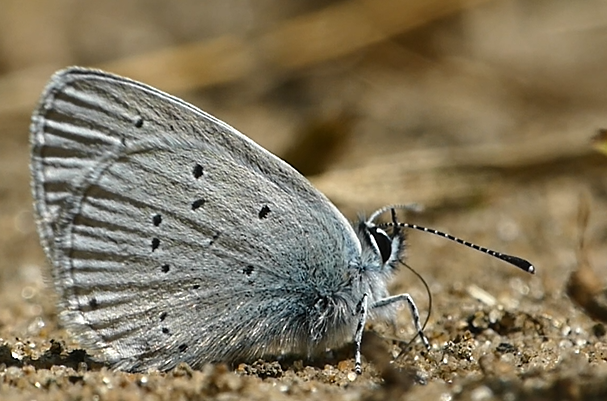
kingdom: Animalia
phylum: Arthropoda
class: Insecta
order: Lepidoptera
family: Lycaenidae
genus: Cupido
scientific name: Cupido minimus
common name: Small blue
